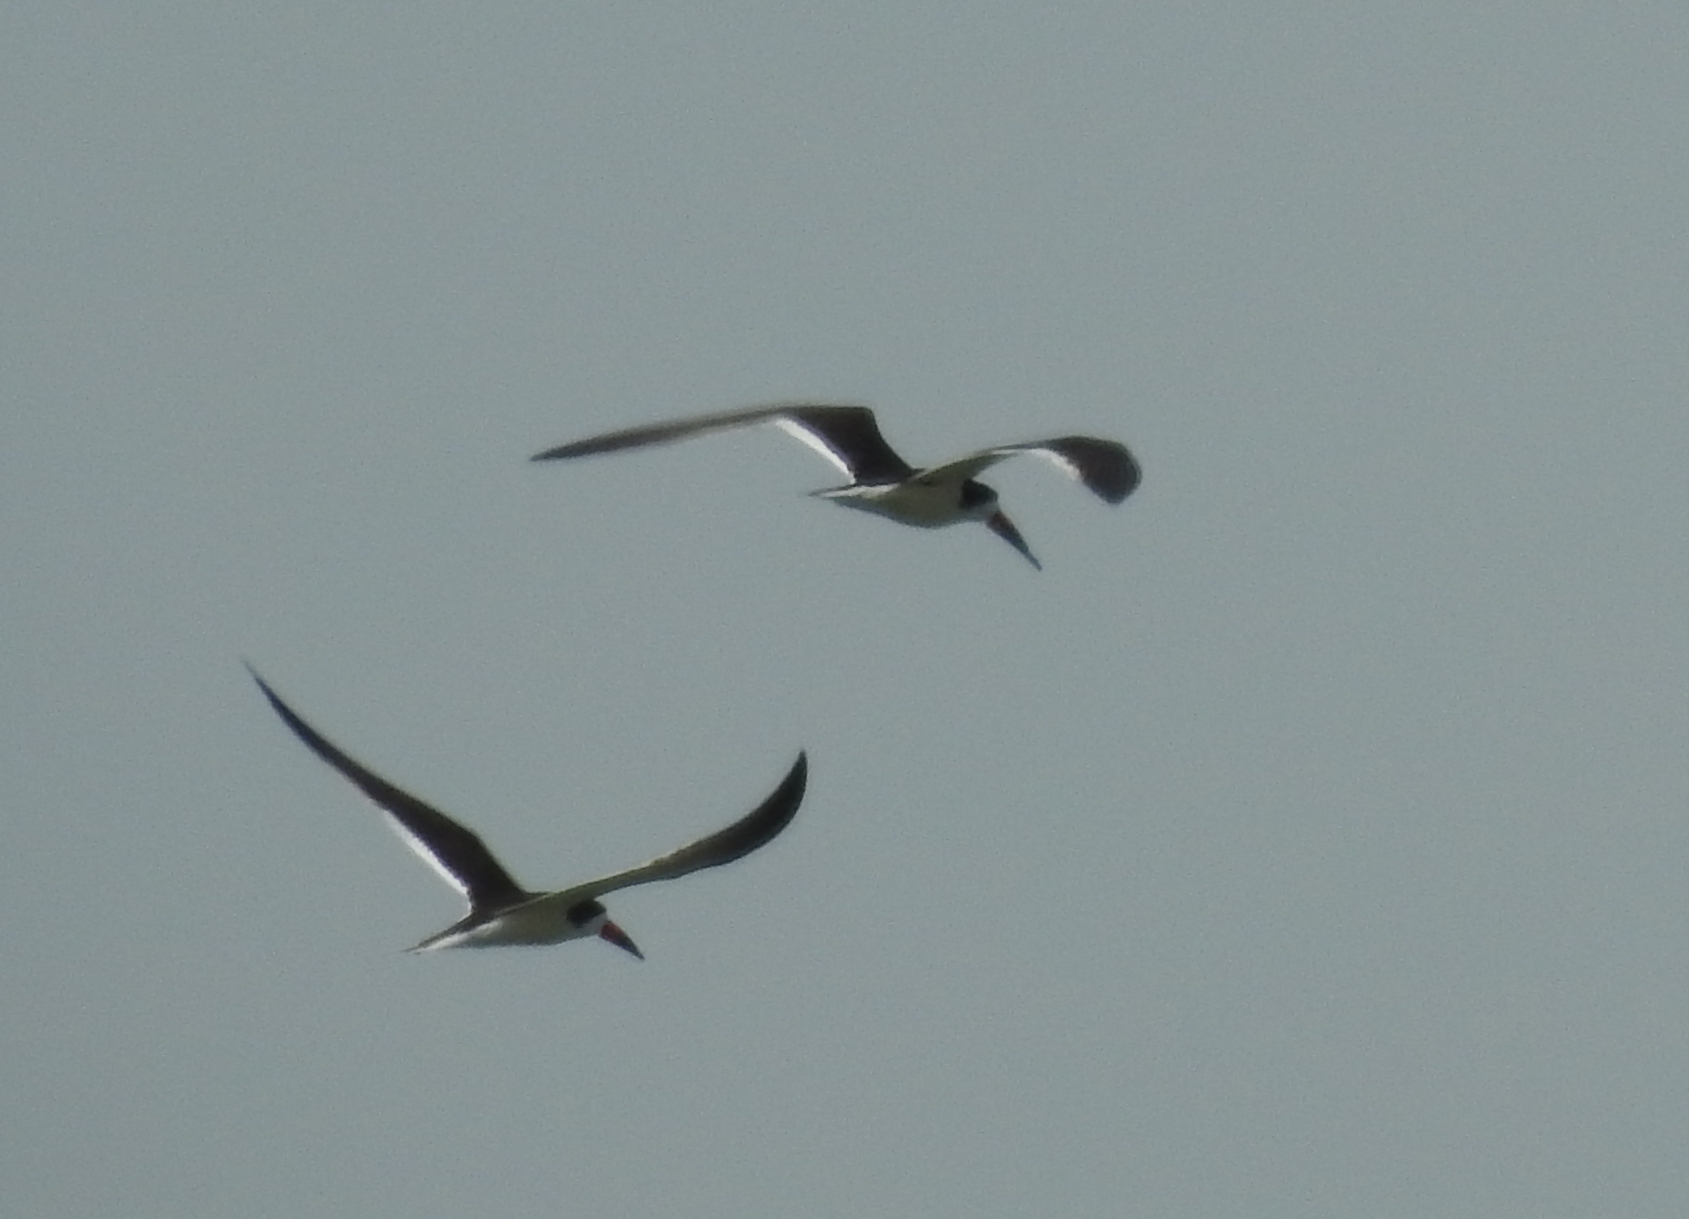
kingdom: Animalia
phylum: Chordata
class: Aves
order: Charadriiformes
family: Laridae
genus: Rynchops
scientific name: Rynchops niger
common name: Black skimmer
